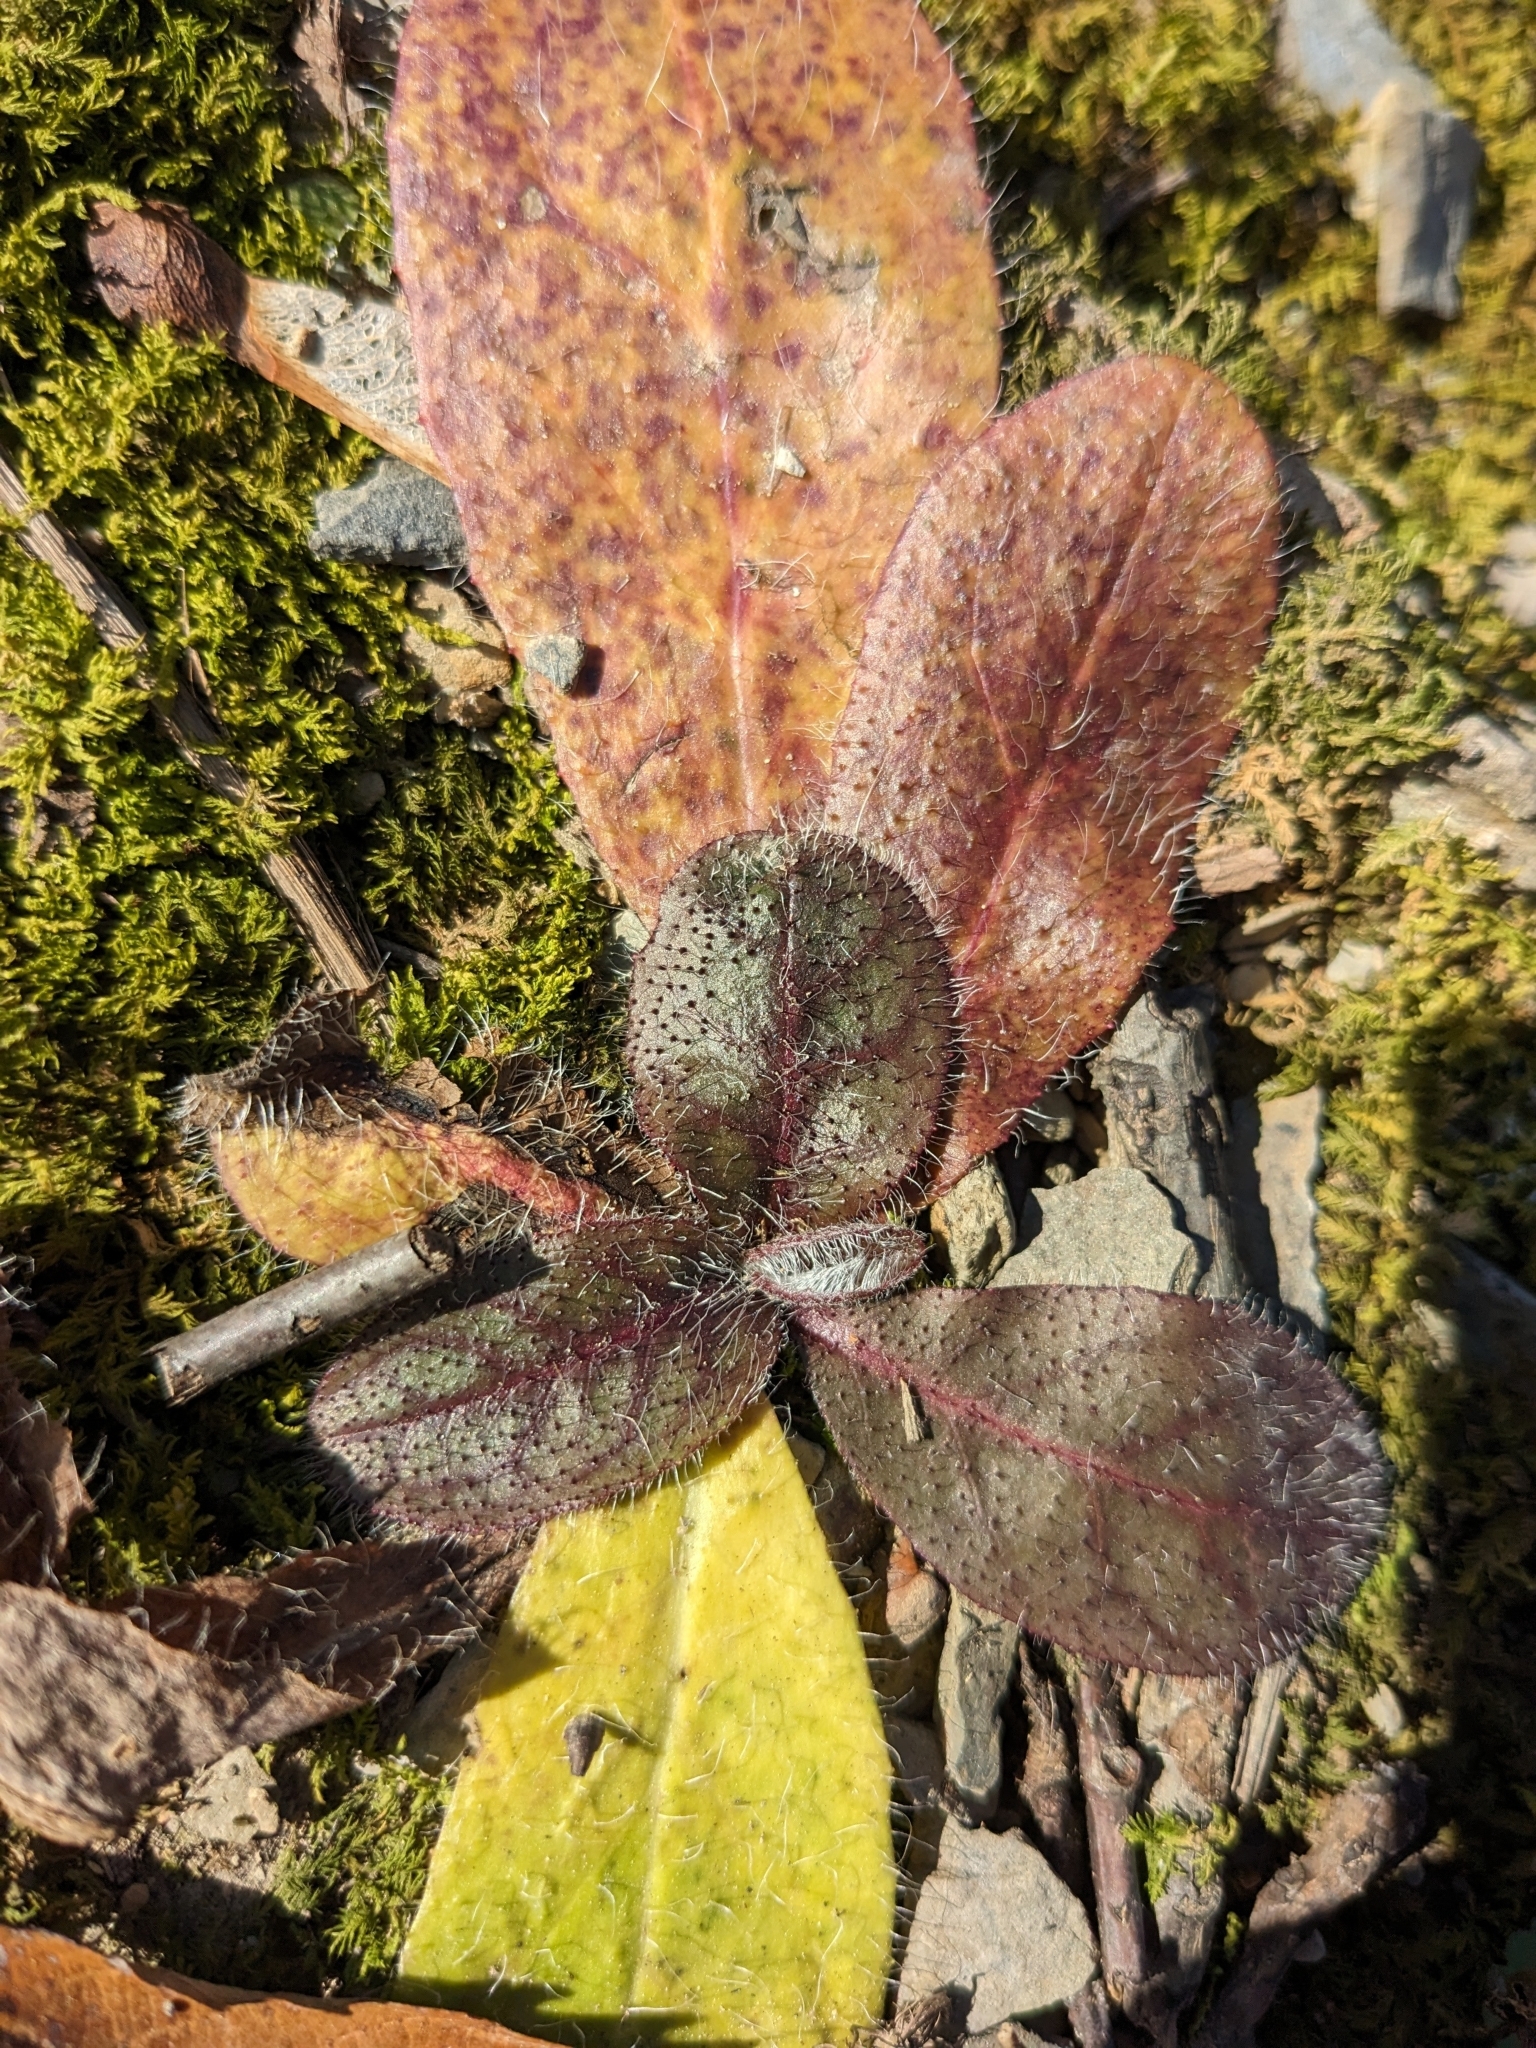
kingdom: Plantae
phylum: Tracheophyta
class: Magnoliopsida
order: Asterales
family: Asteraceae
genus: Hieracium
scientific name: Hieracium venosum
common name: Rattlesnake hawkweed
